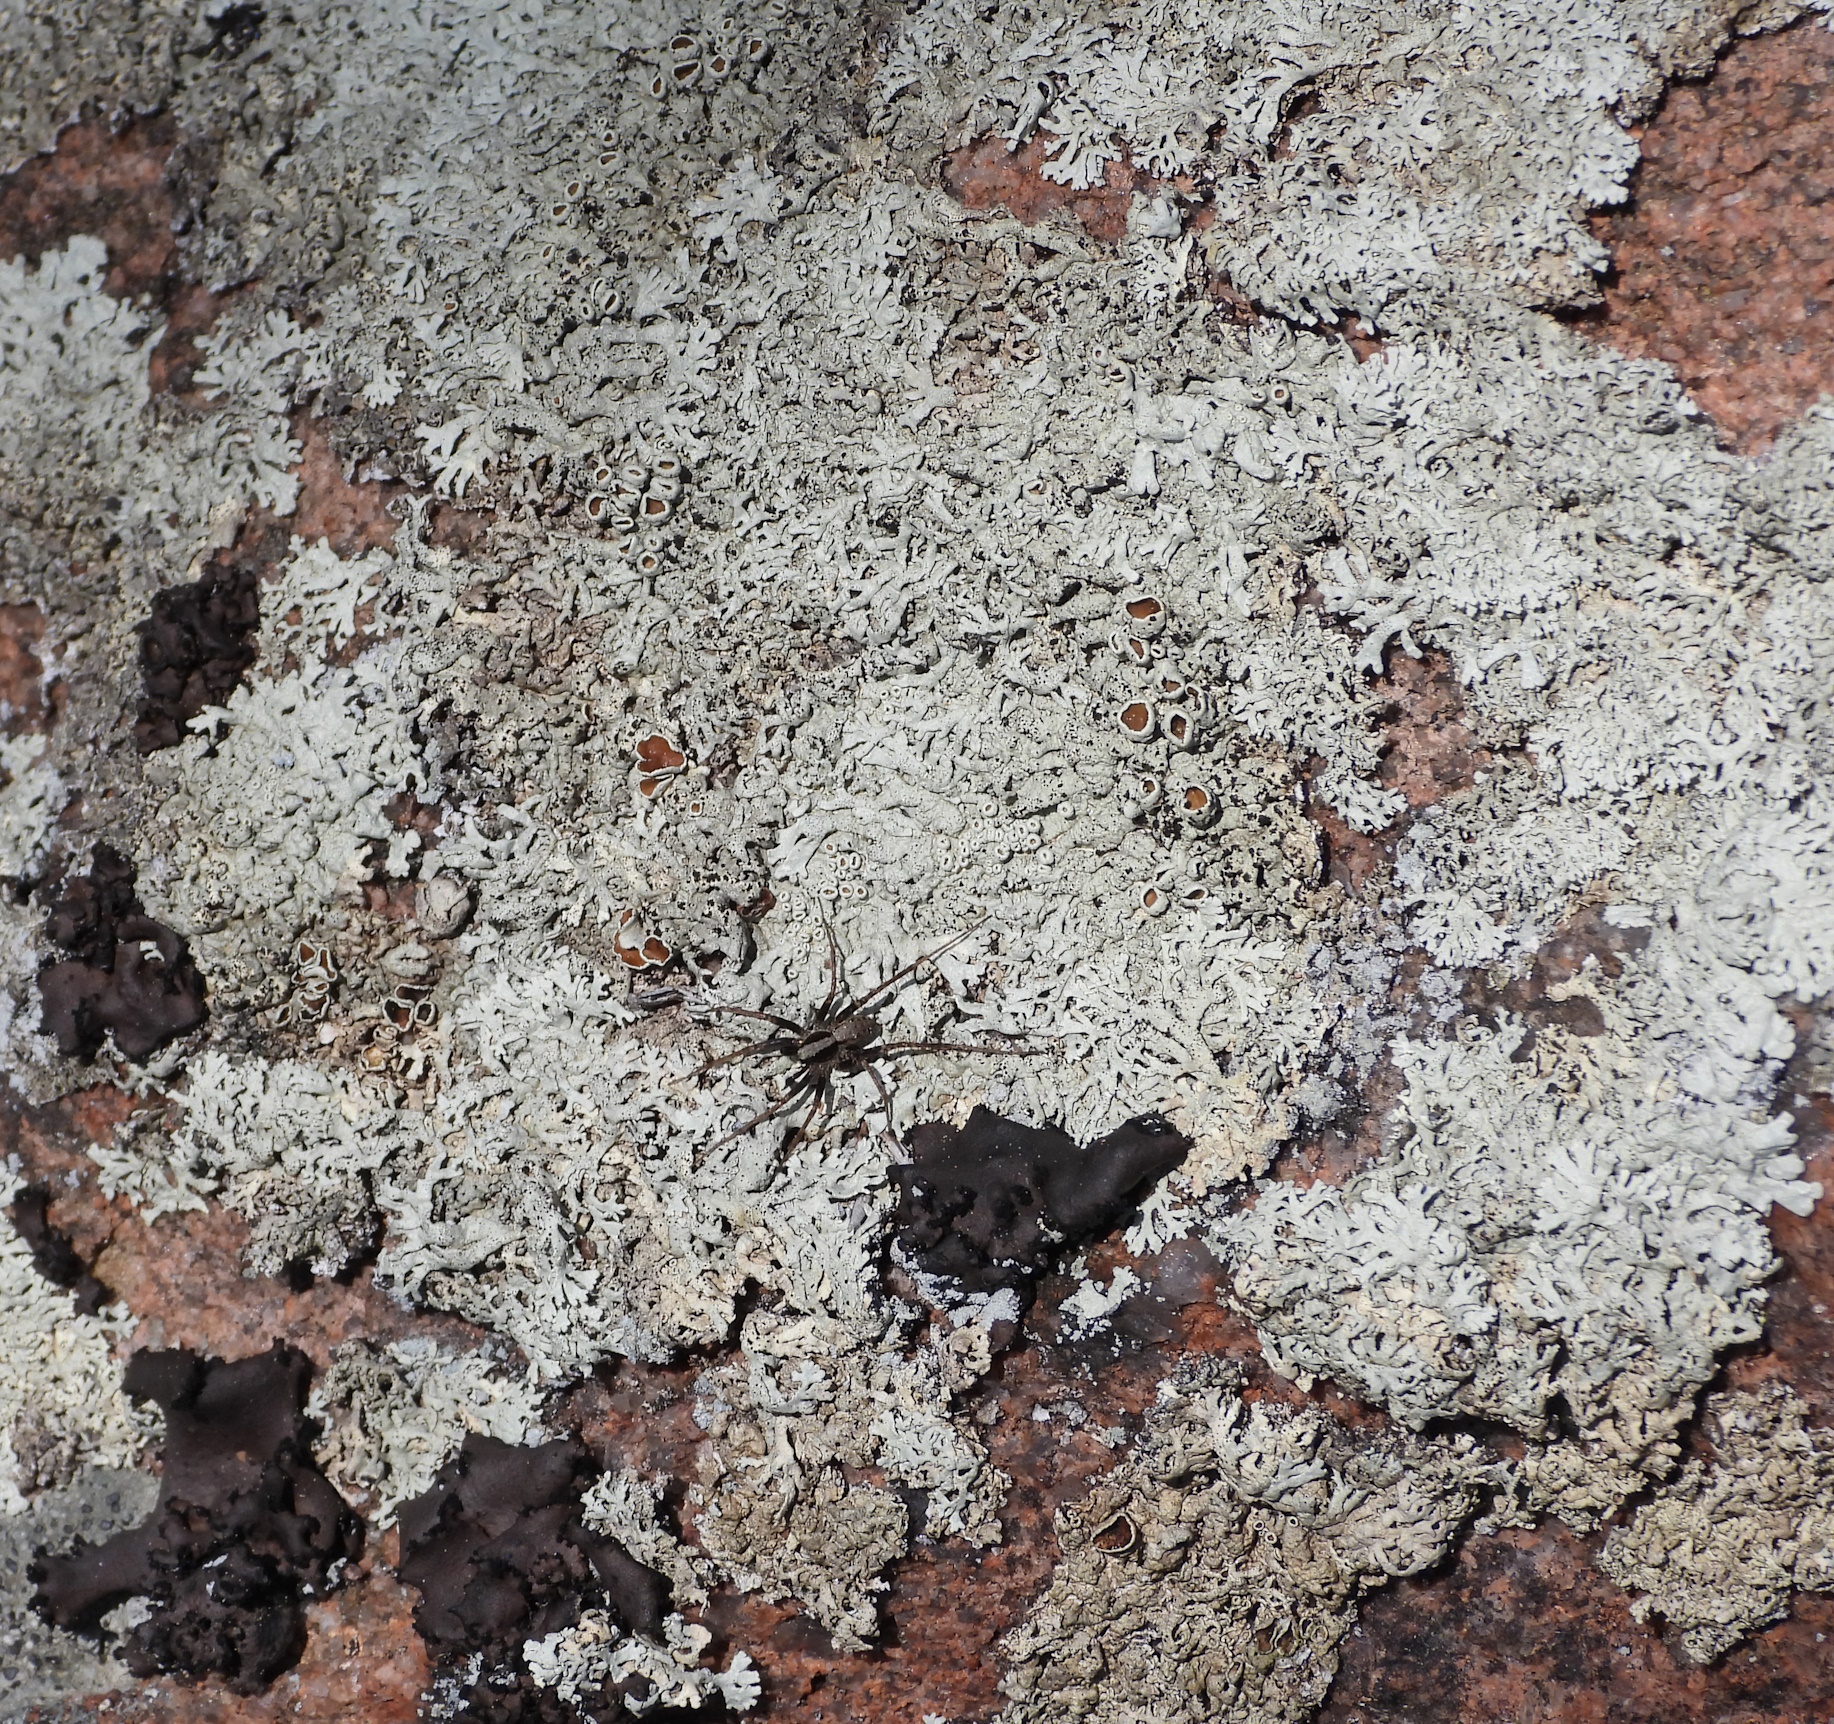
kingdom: Fungi
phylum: Ascomycota
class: Lecanoromycetes
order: Lecanorales
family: Parmeliaceae
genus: Arctoparmelia
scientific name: Arctoparmelia centrifuga
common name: Concentric ring lichen
